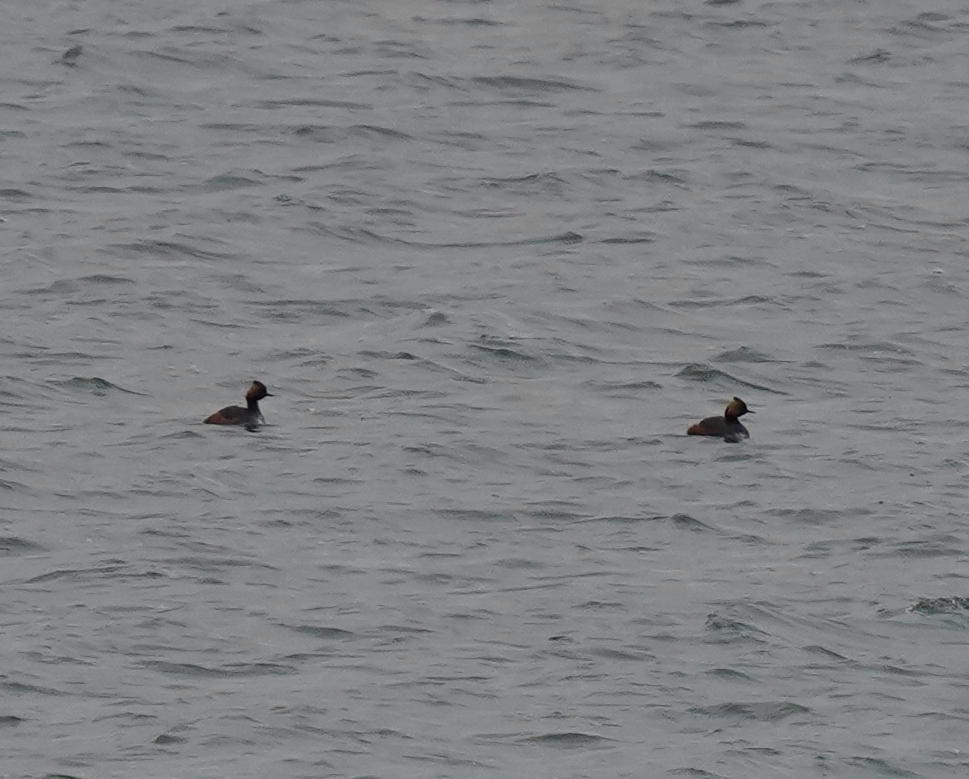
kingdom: Animalia
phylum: Chordata
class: Aves
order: Podicipediformes
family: Podicipedidae
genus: Podiceps
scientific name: Podiceps nigricollis
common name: Black-necked grebe
